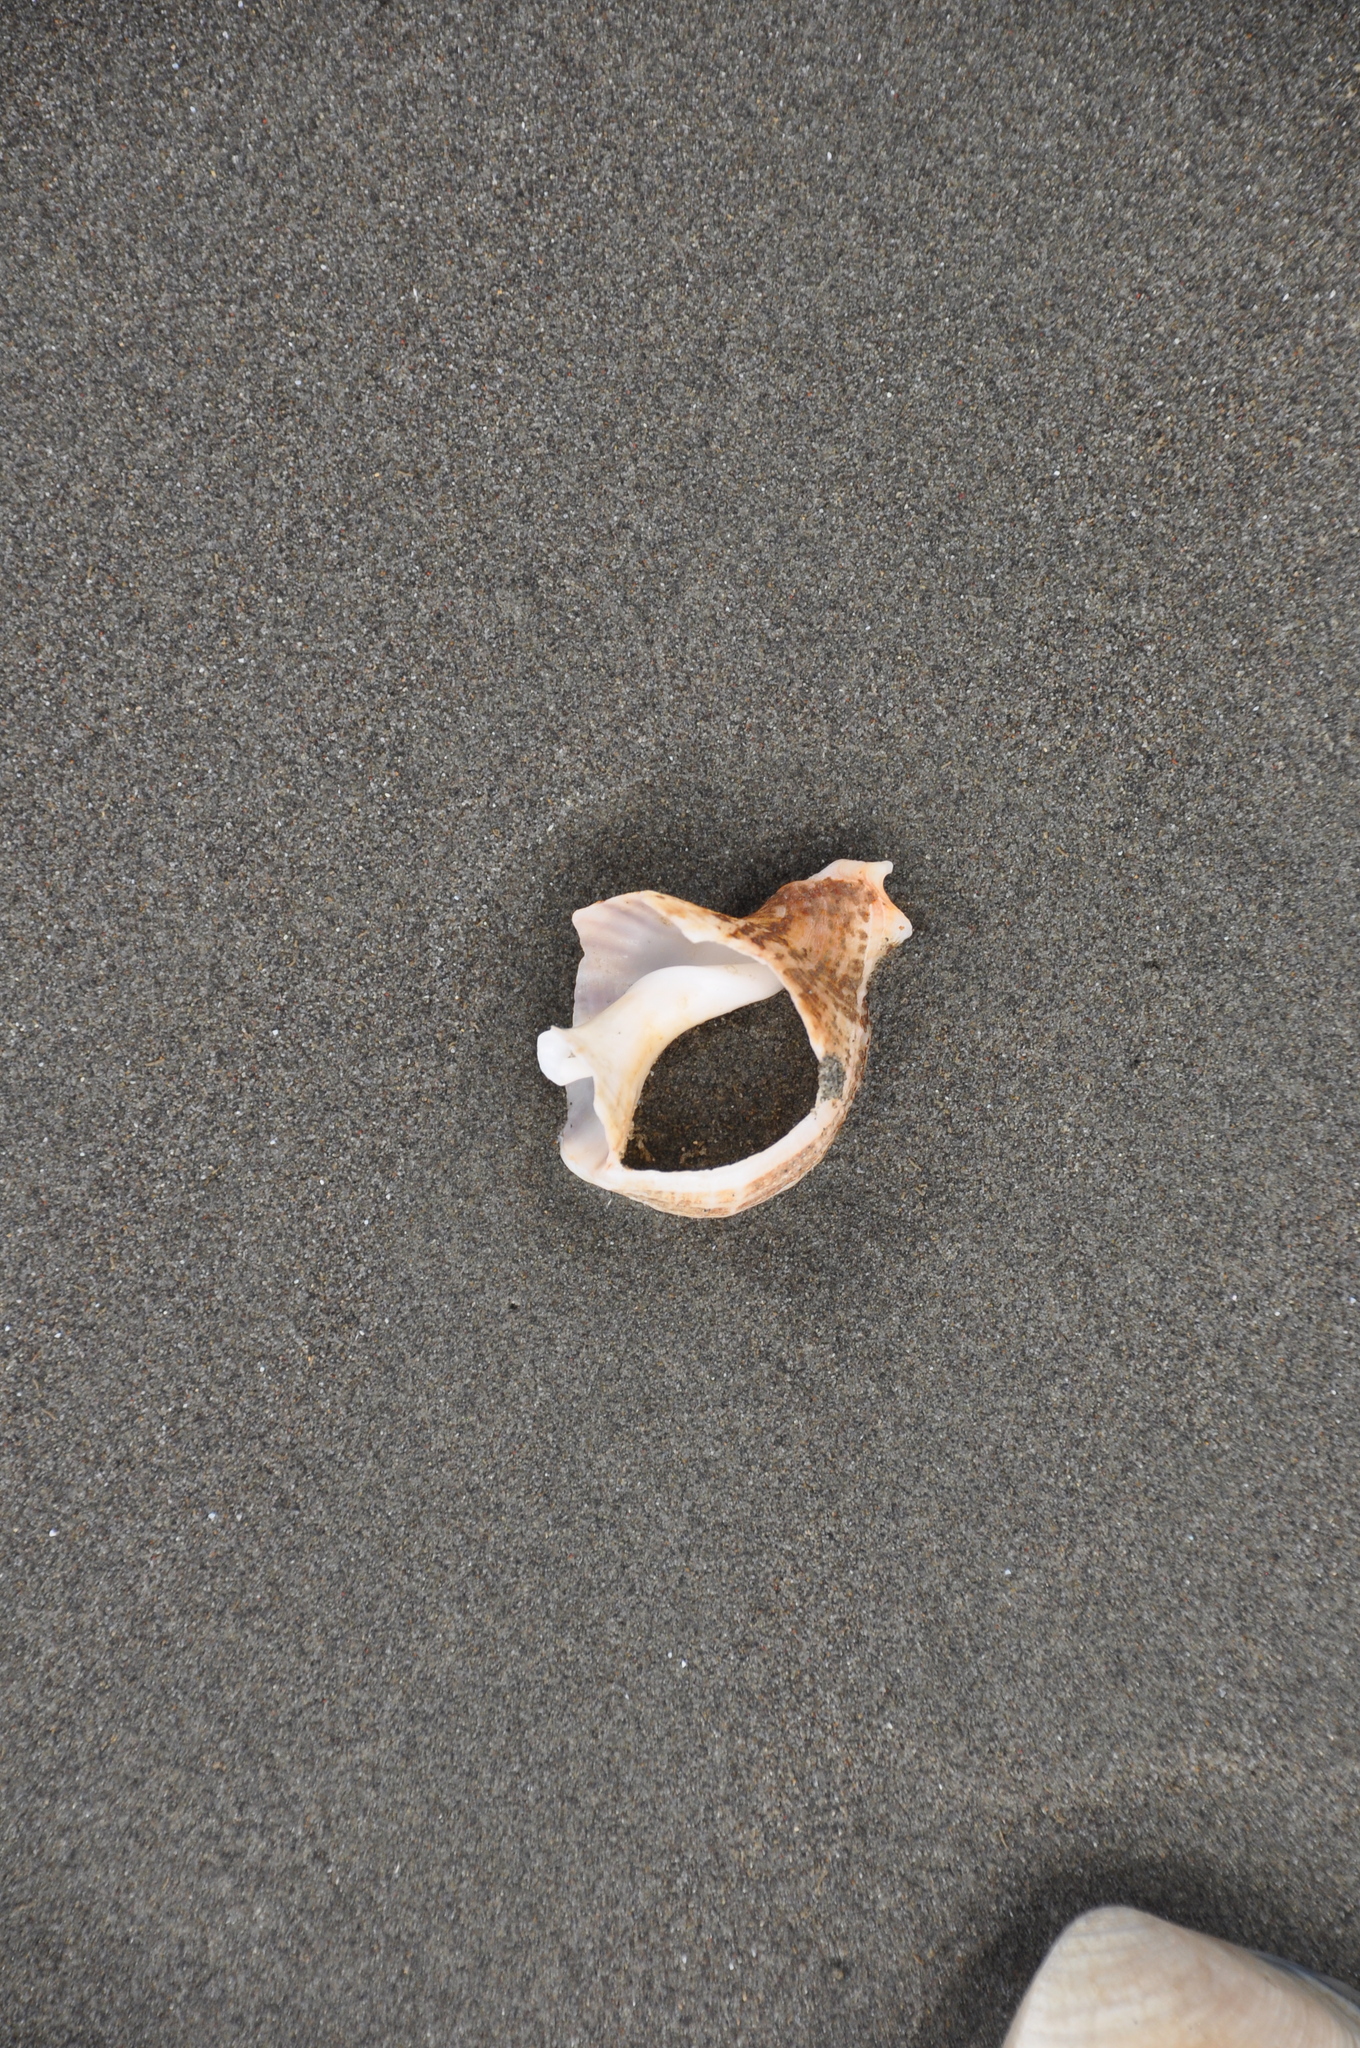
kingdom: Animalia
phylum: Mollusca
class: Gastropoda
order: Neogastropoda
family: Prosiphonidae
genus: Austrofusus
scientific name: Austrofusus glans
